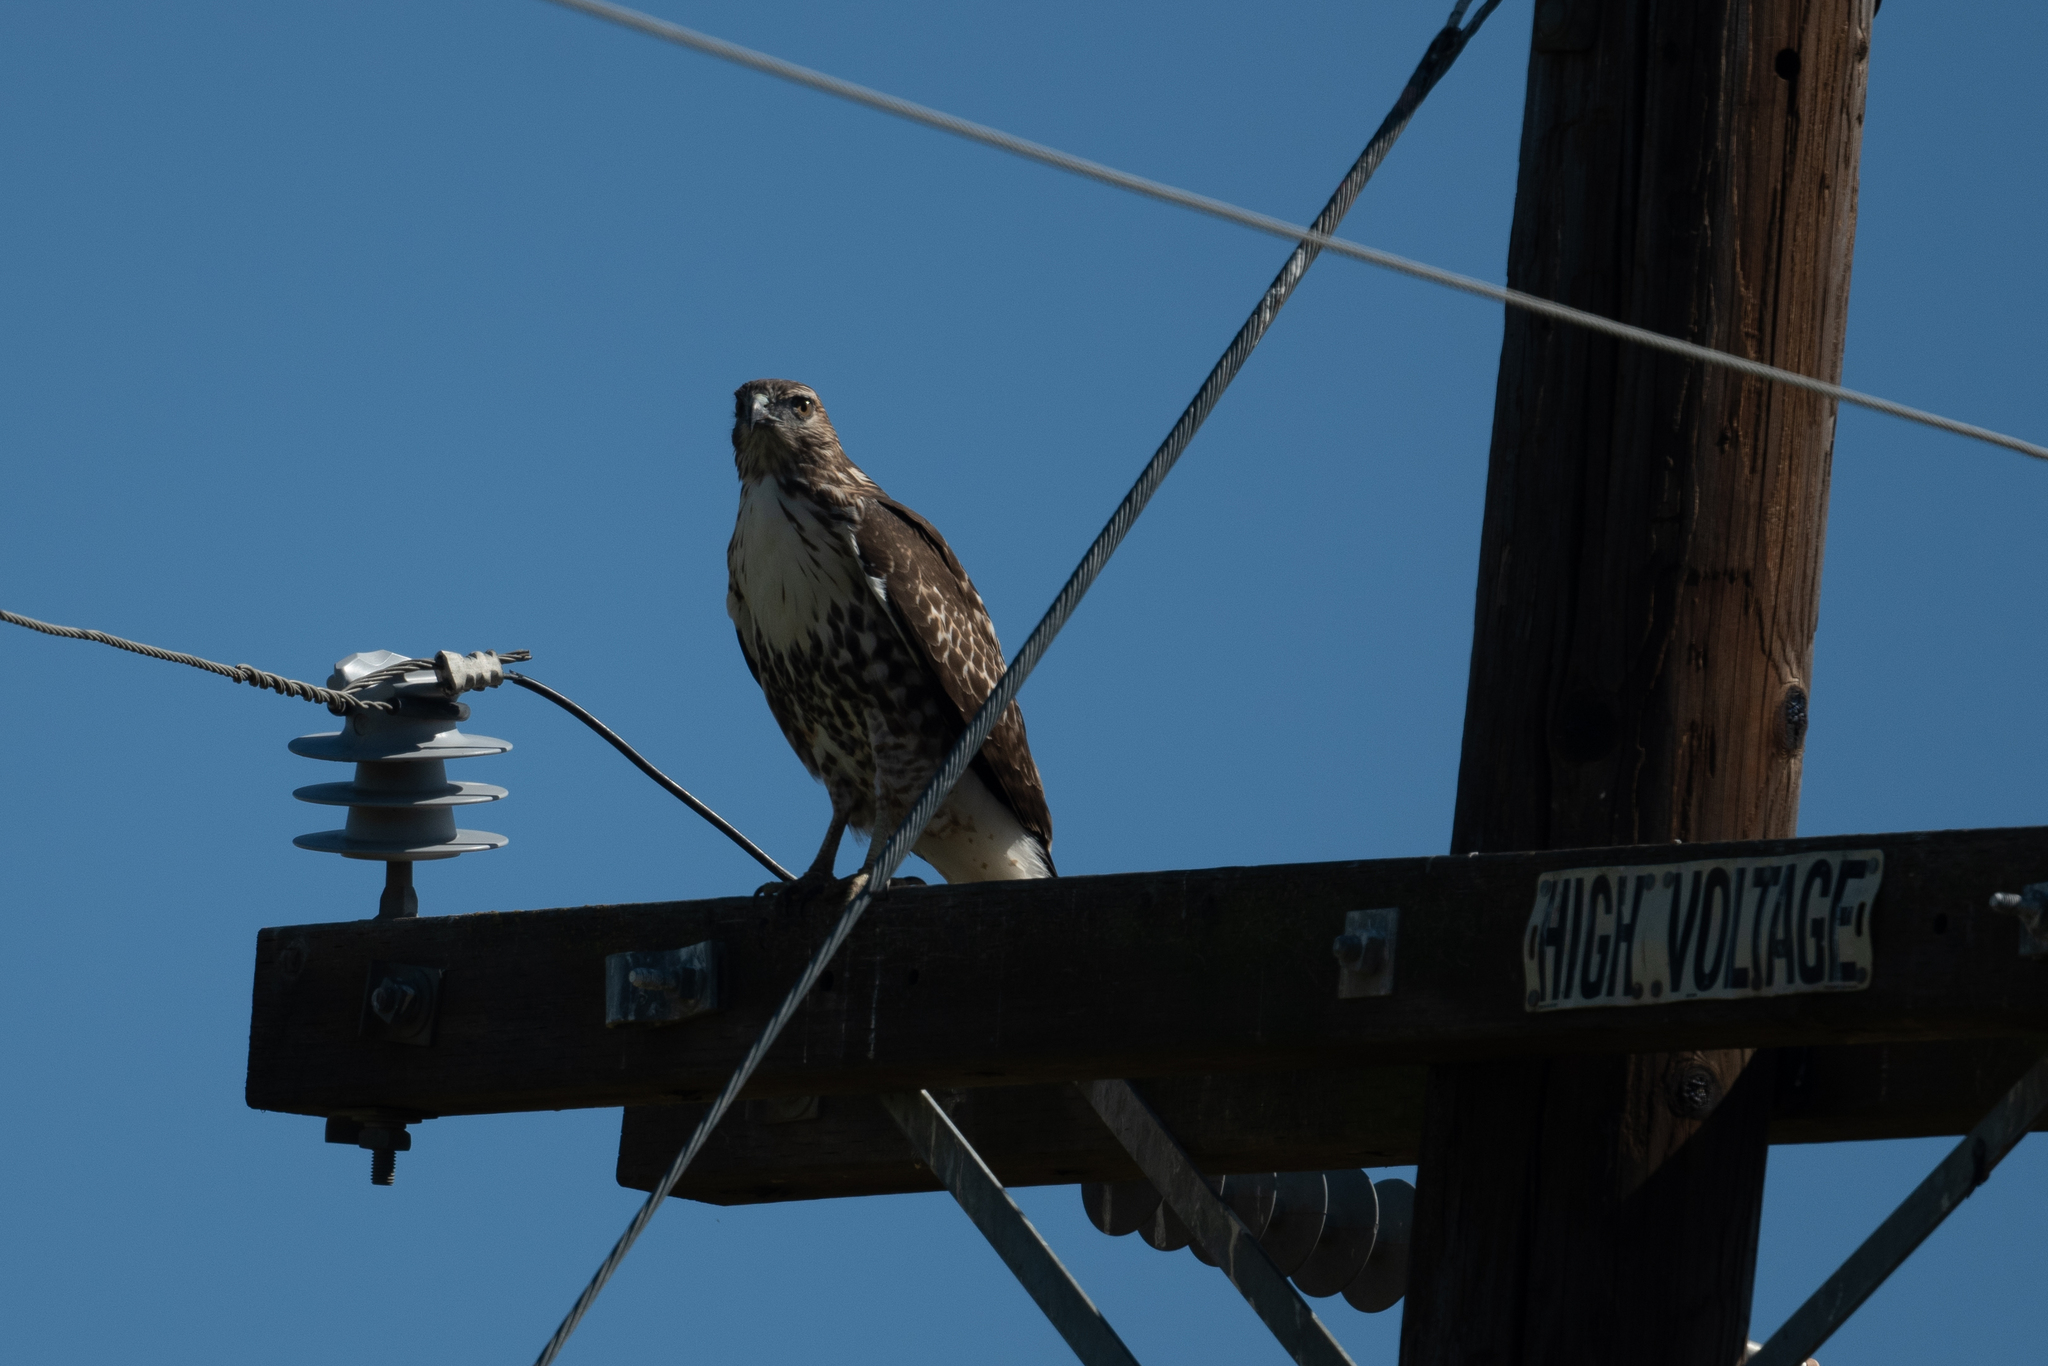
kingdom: Animalia
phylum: Chordata
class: Aves
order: Accipitriformes
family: Accipitridae
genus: Buteo
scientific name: Buteo jamaicensis
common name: Red-tailed hawk
